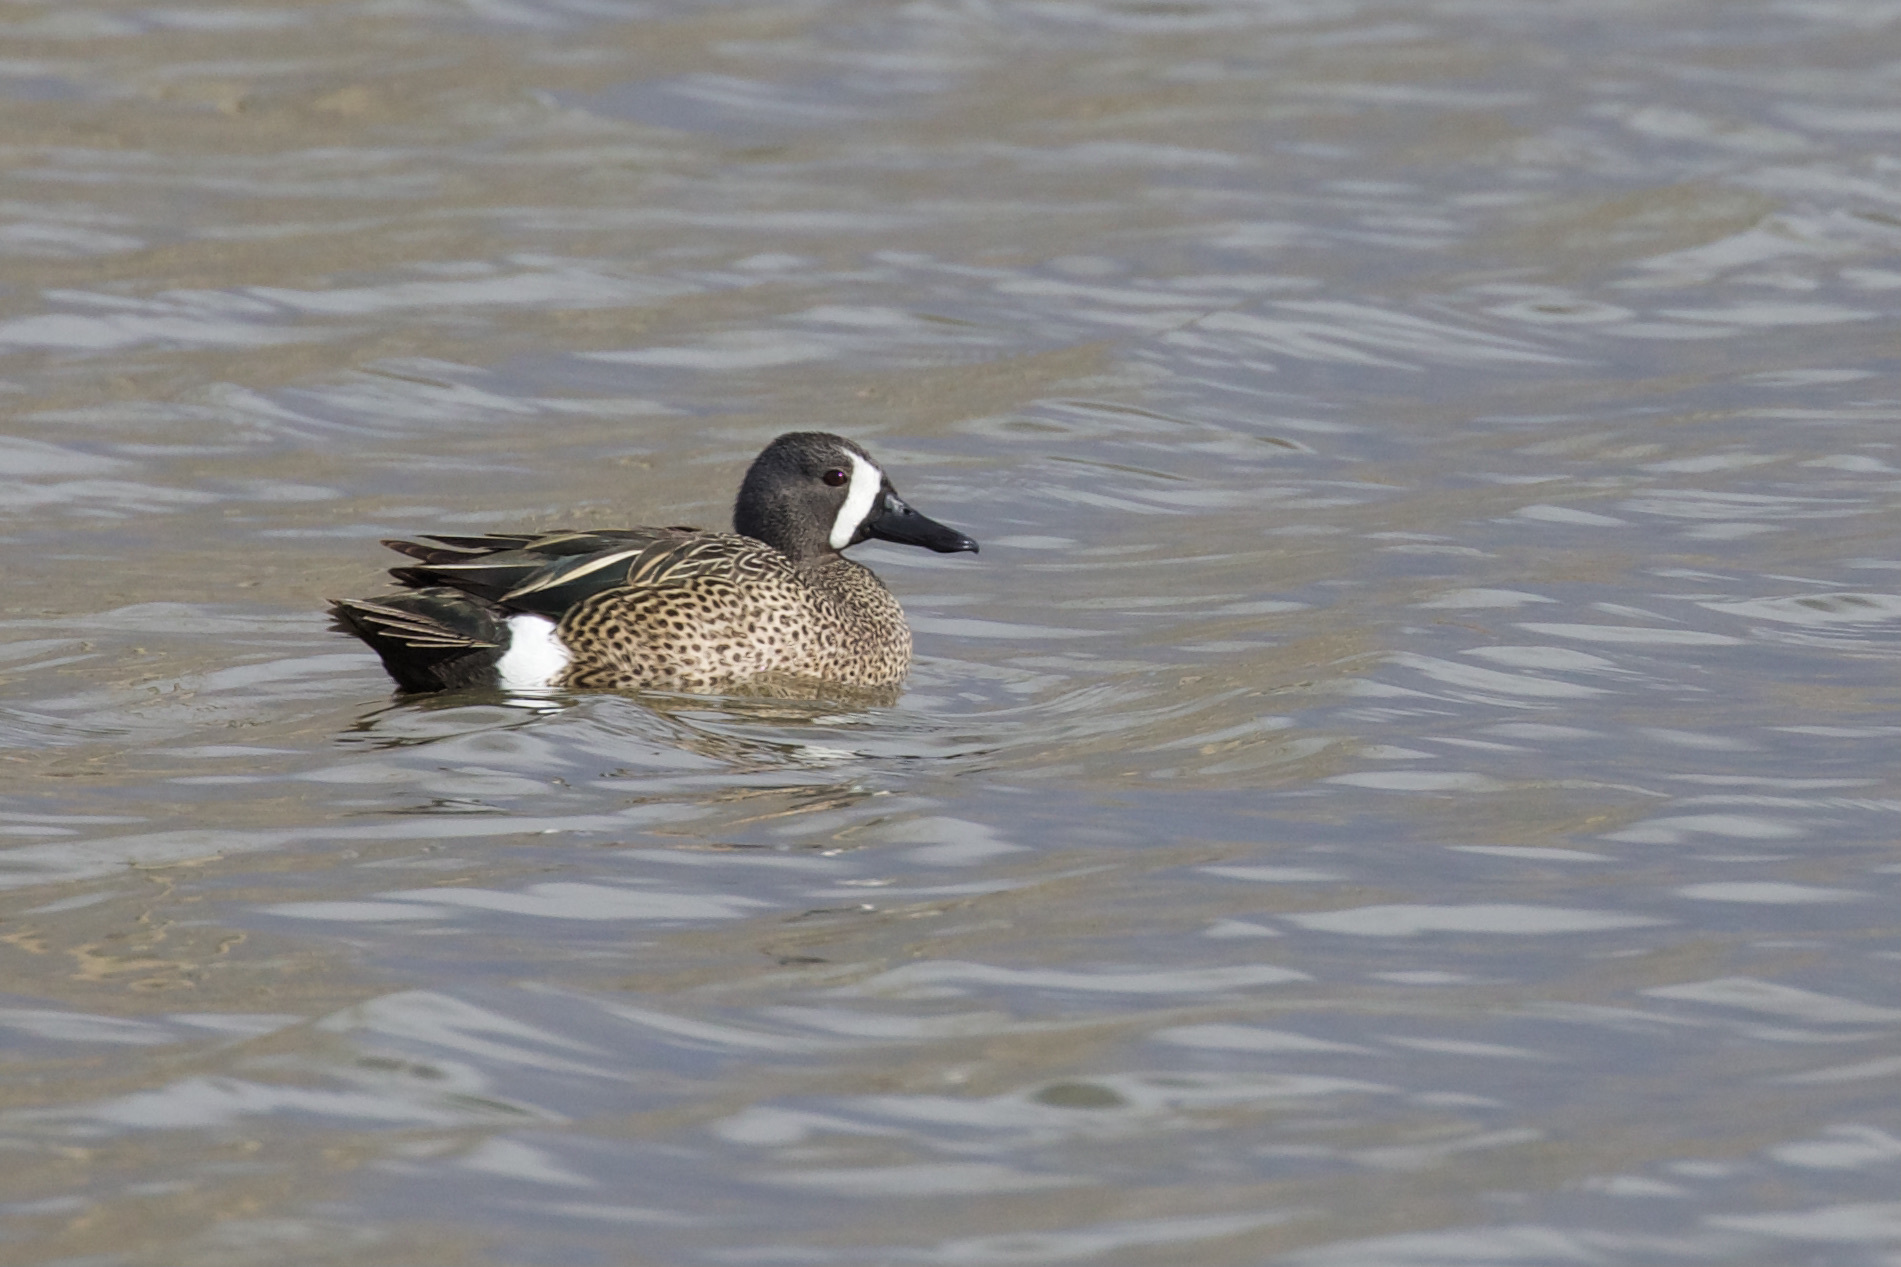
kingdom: Animalia
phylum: Chordata
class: Aves
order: Anseriformes
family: Anatidae
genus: Spatula
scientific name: Spatula discors
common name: Blue-winged teal
